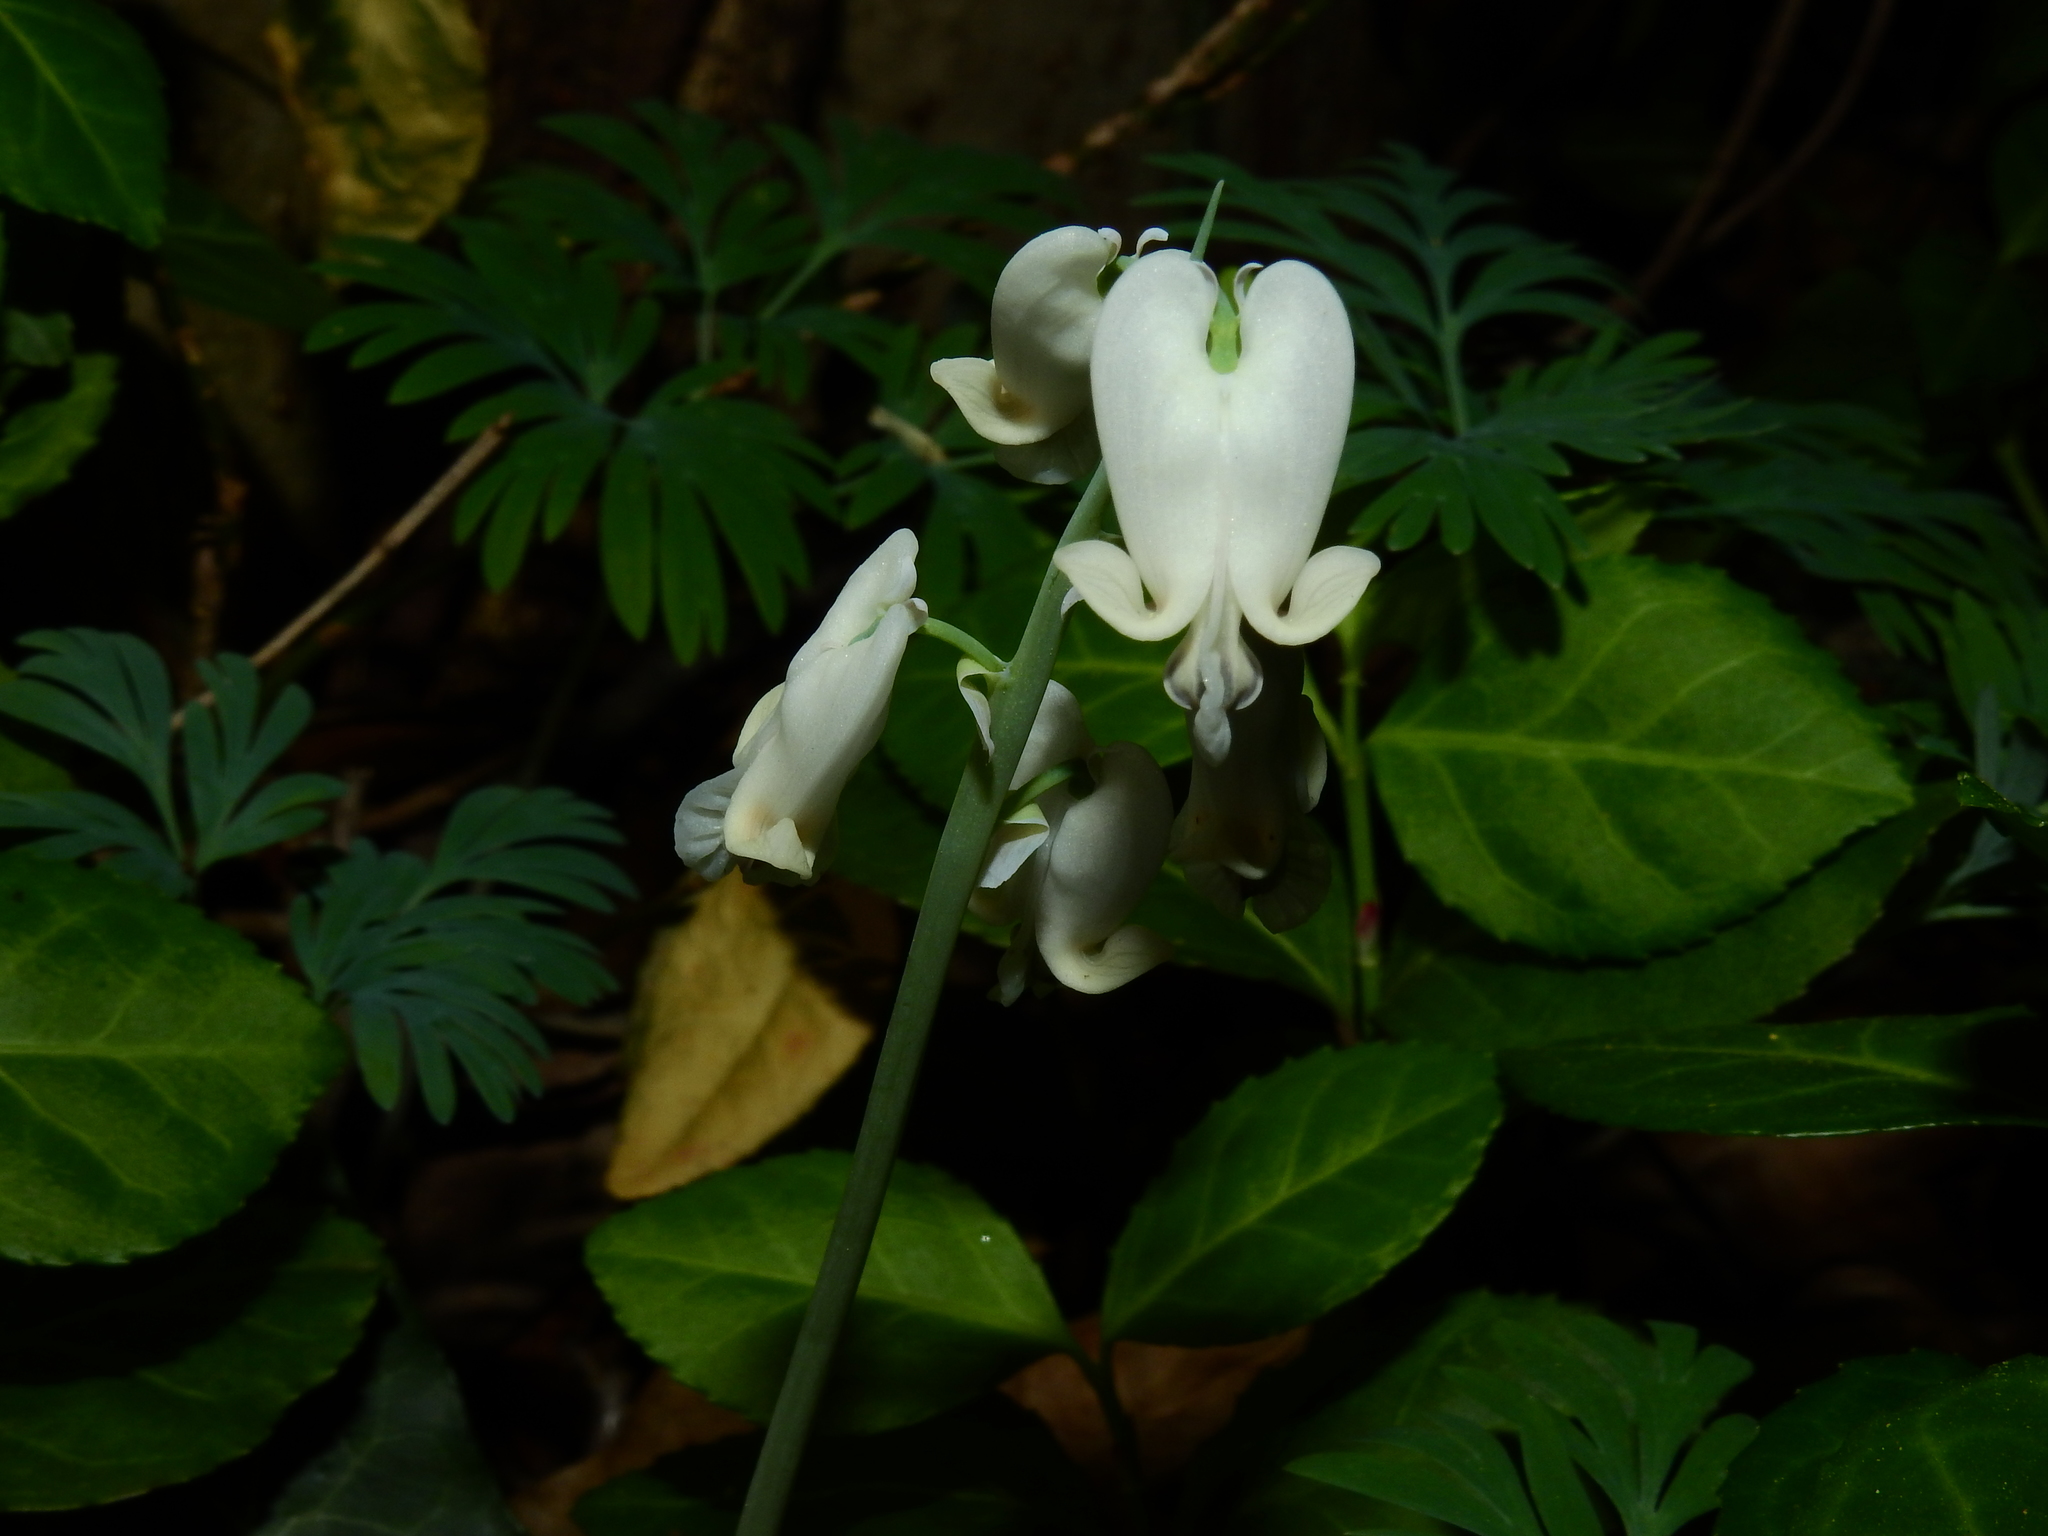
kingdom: Plantae
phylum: Tracheophyta
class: Magnoliopsida
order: Ranunculales
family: Papaveraceae
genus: Dicentra
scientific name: Dicentra canadensis
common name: Squirrel-corn
